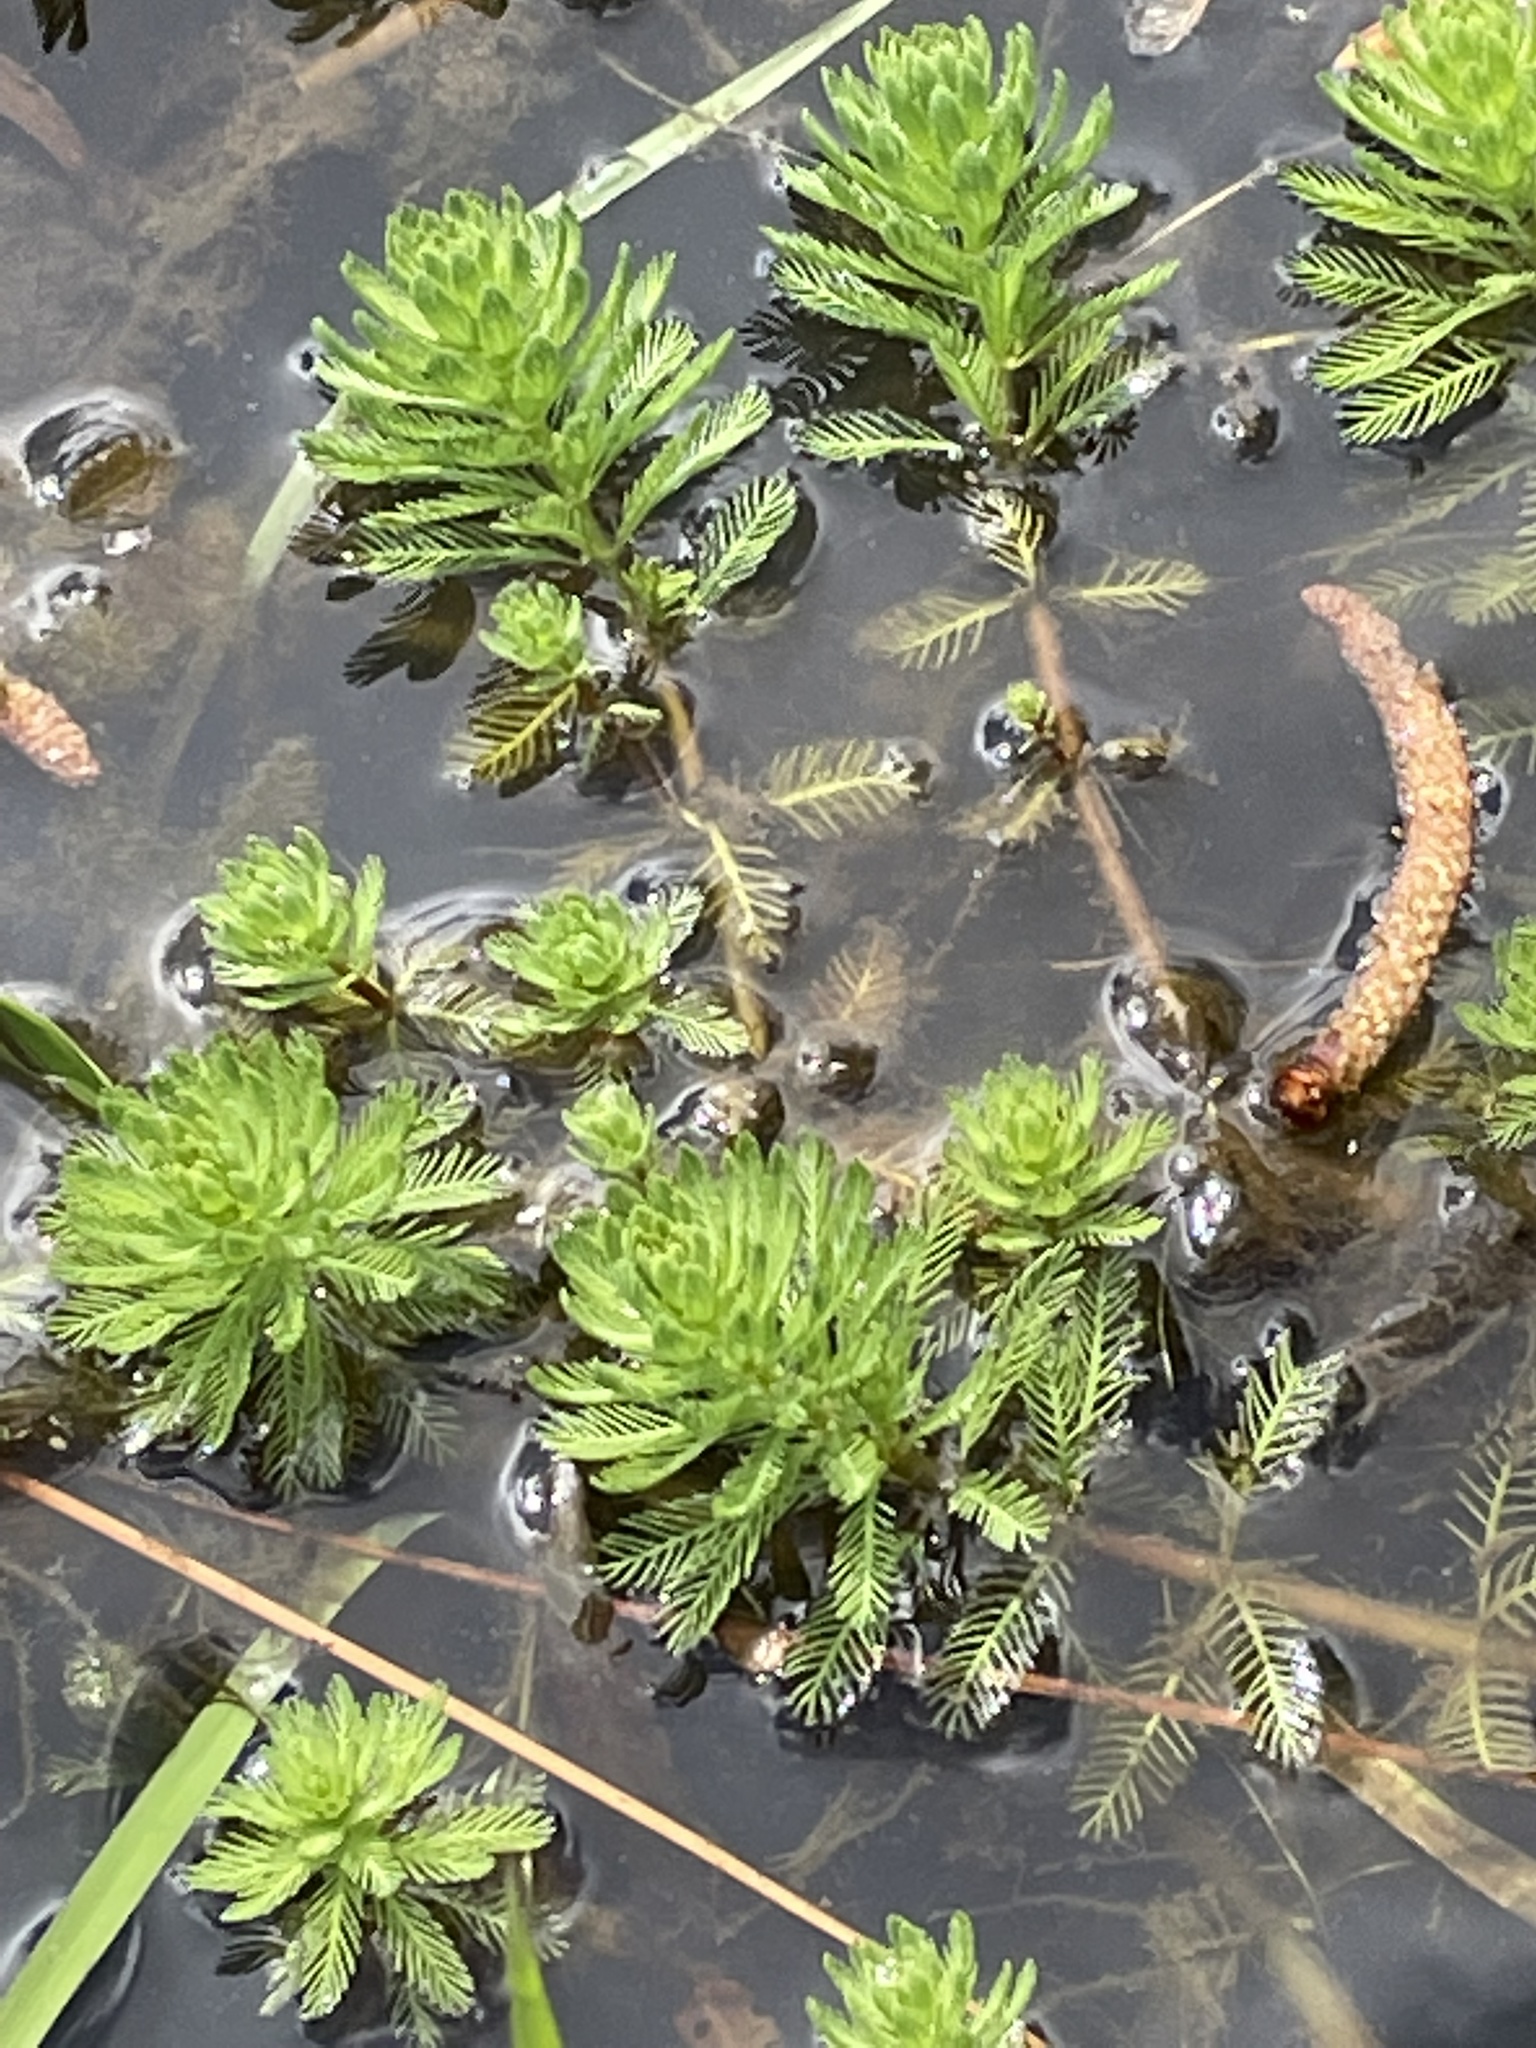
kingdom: Plantae
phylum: Tracheophyta
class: Magnoliopsida
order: Saxifragales
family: Haloragaceae
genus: Myriophyllum
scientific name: Myriophyllum aquaticum
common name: Parrot's feather
